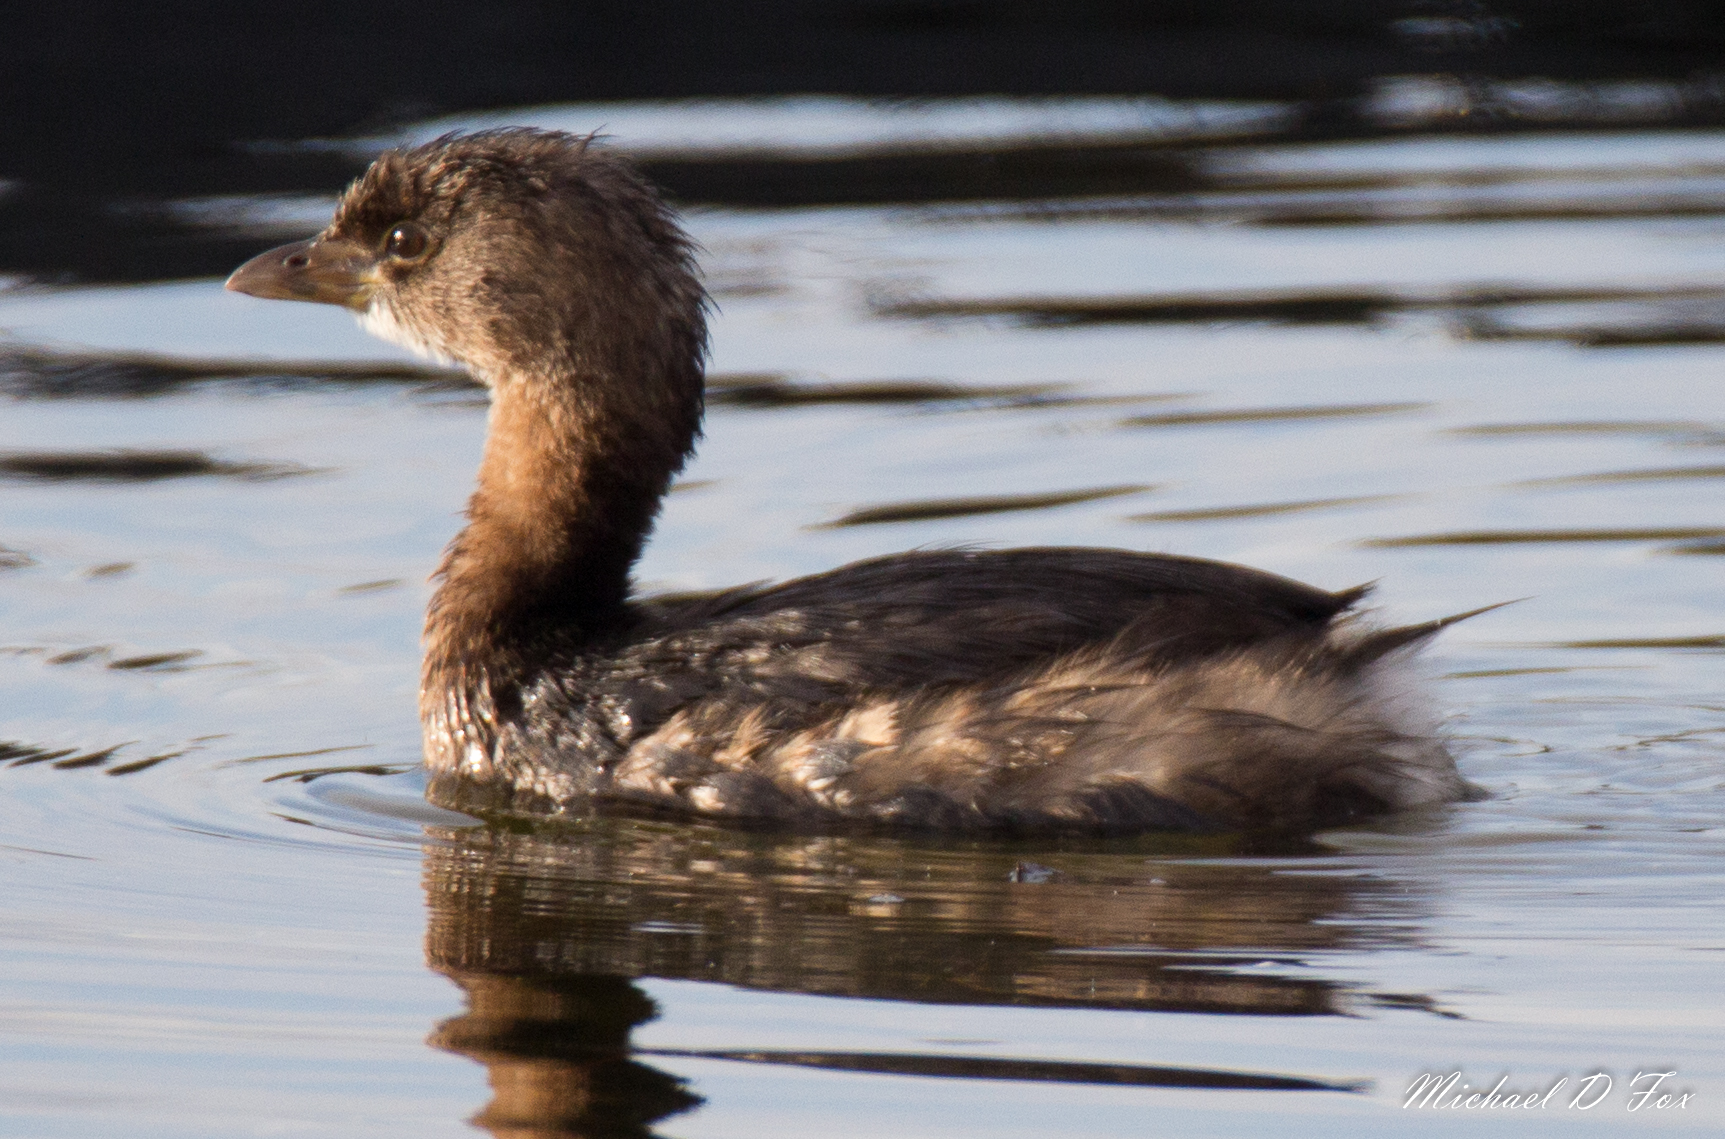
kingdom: Animalia
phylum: Chordata
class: Aves
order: Podicipediformes
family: Podicipedidae
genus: Podilymbus
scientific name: Podilymbus podiceps
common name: Pied-billed grebe
